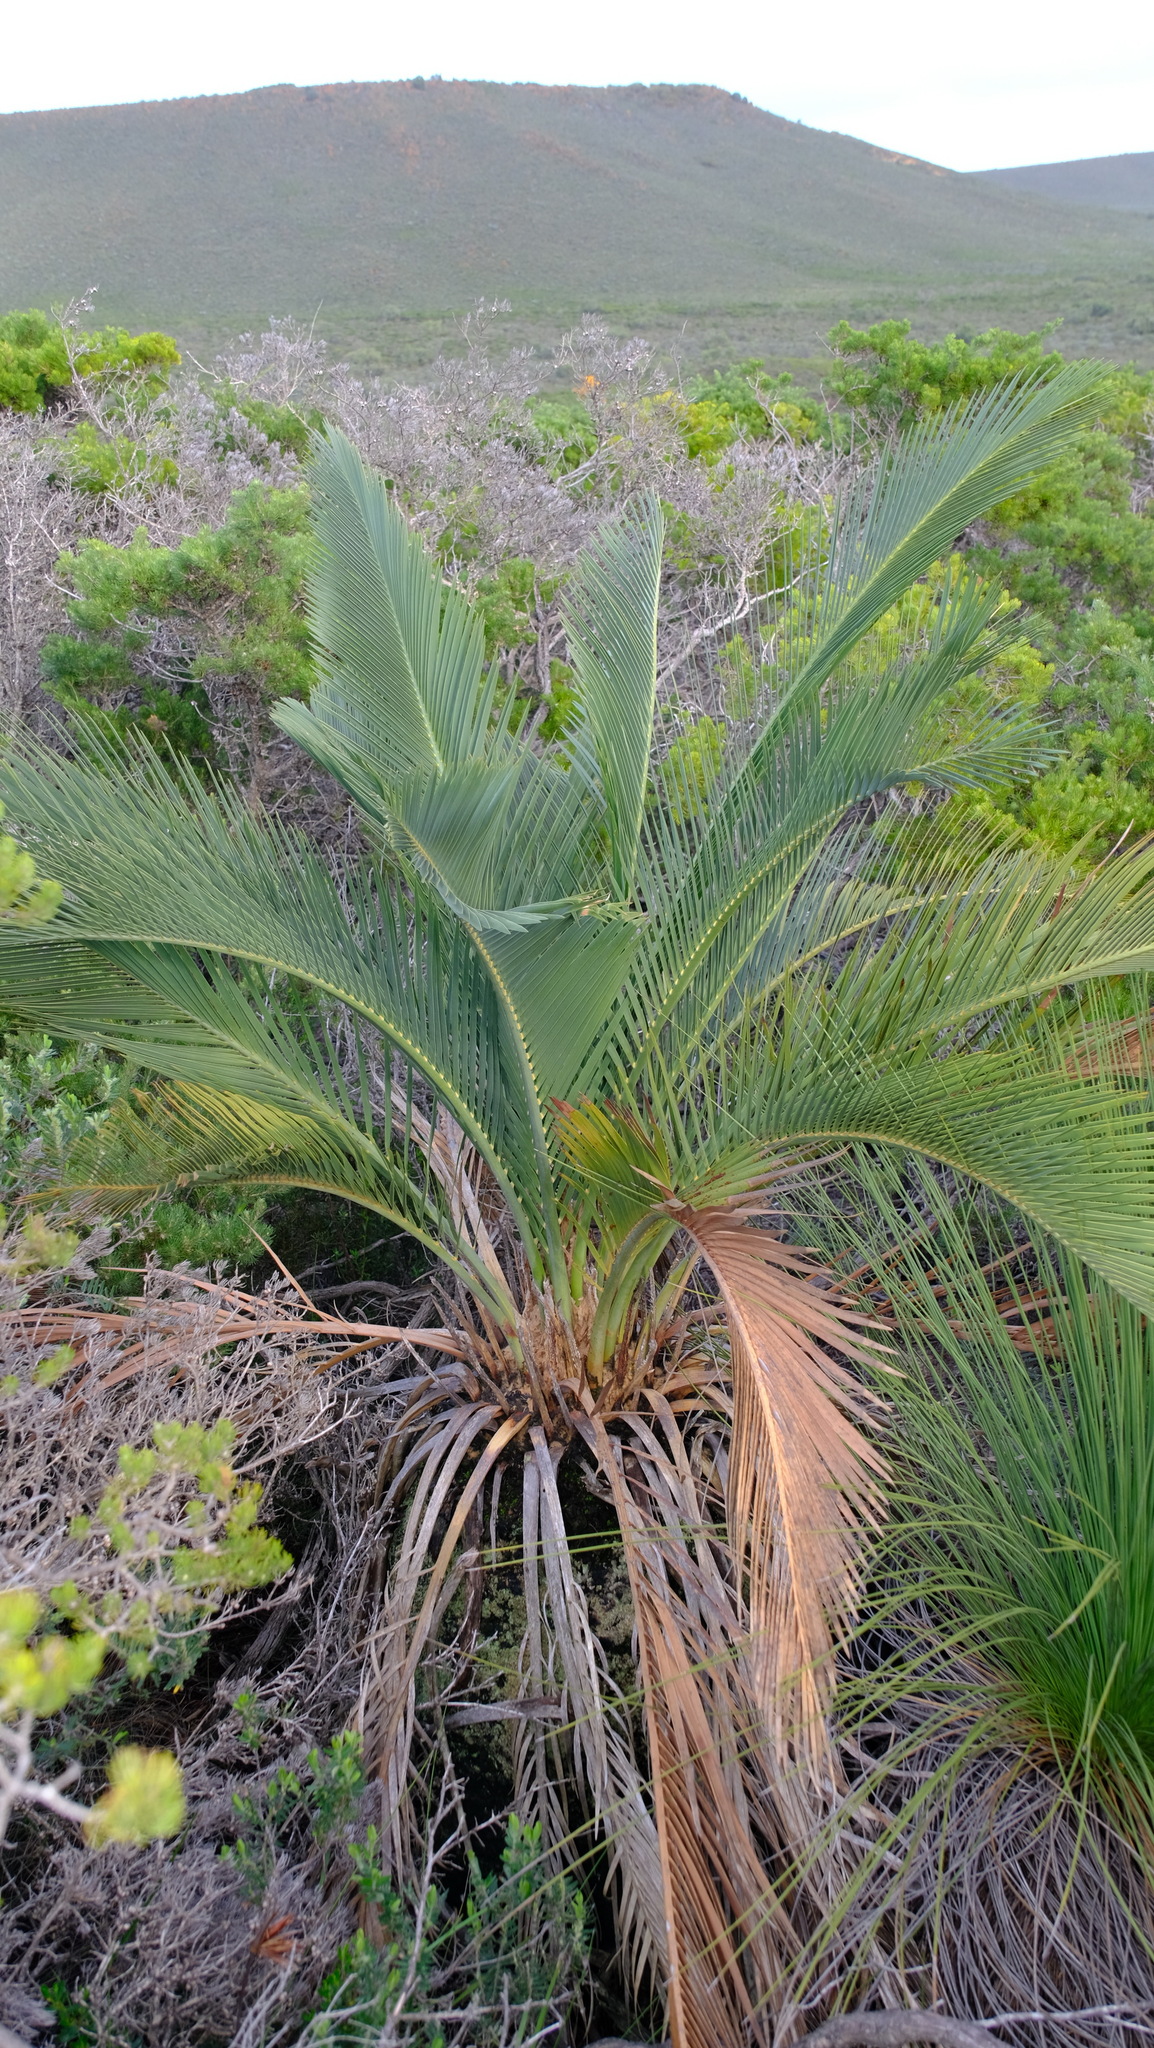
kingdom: Plantae
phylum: Tracheophyta
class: Cycadopsida
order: Cycadales
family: Zamiaceae
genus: Macrozamia
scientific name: Macrozamia fraseri
